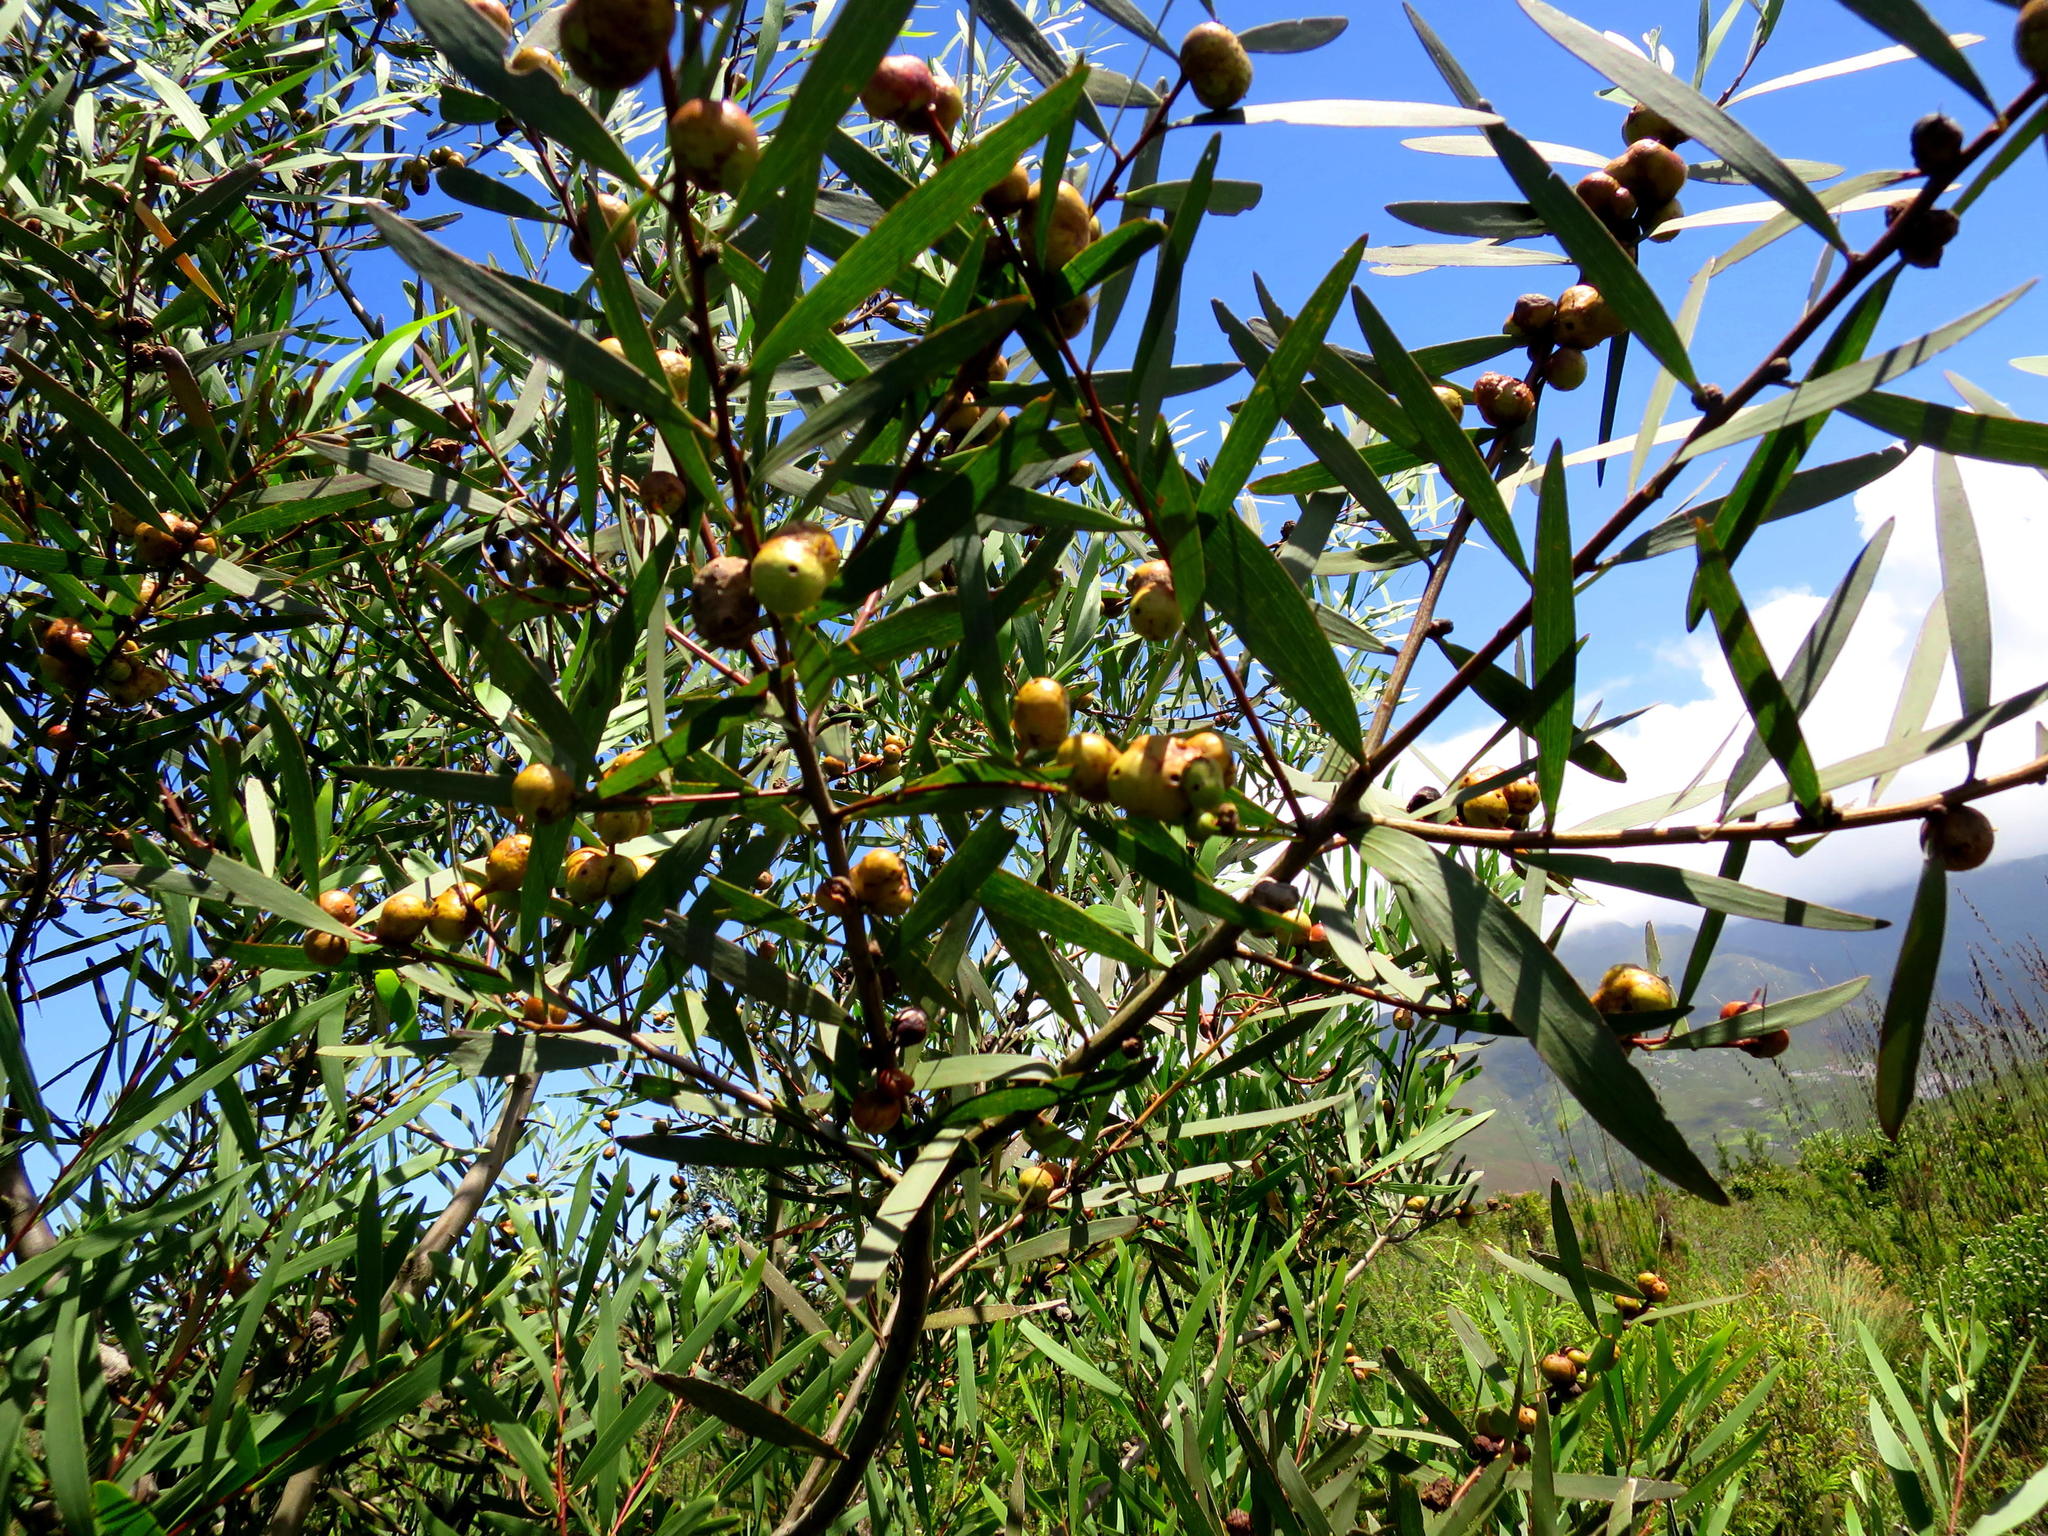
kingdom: Animalia
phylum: Arthropoda
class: Insecta
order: Hymenoptera
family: Pteromalidae
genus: Trichilogaster
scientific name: Trichilogaster acaciaelongifoliae
